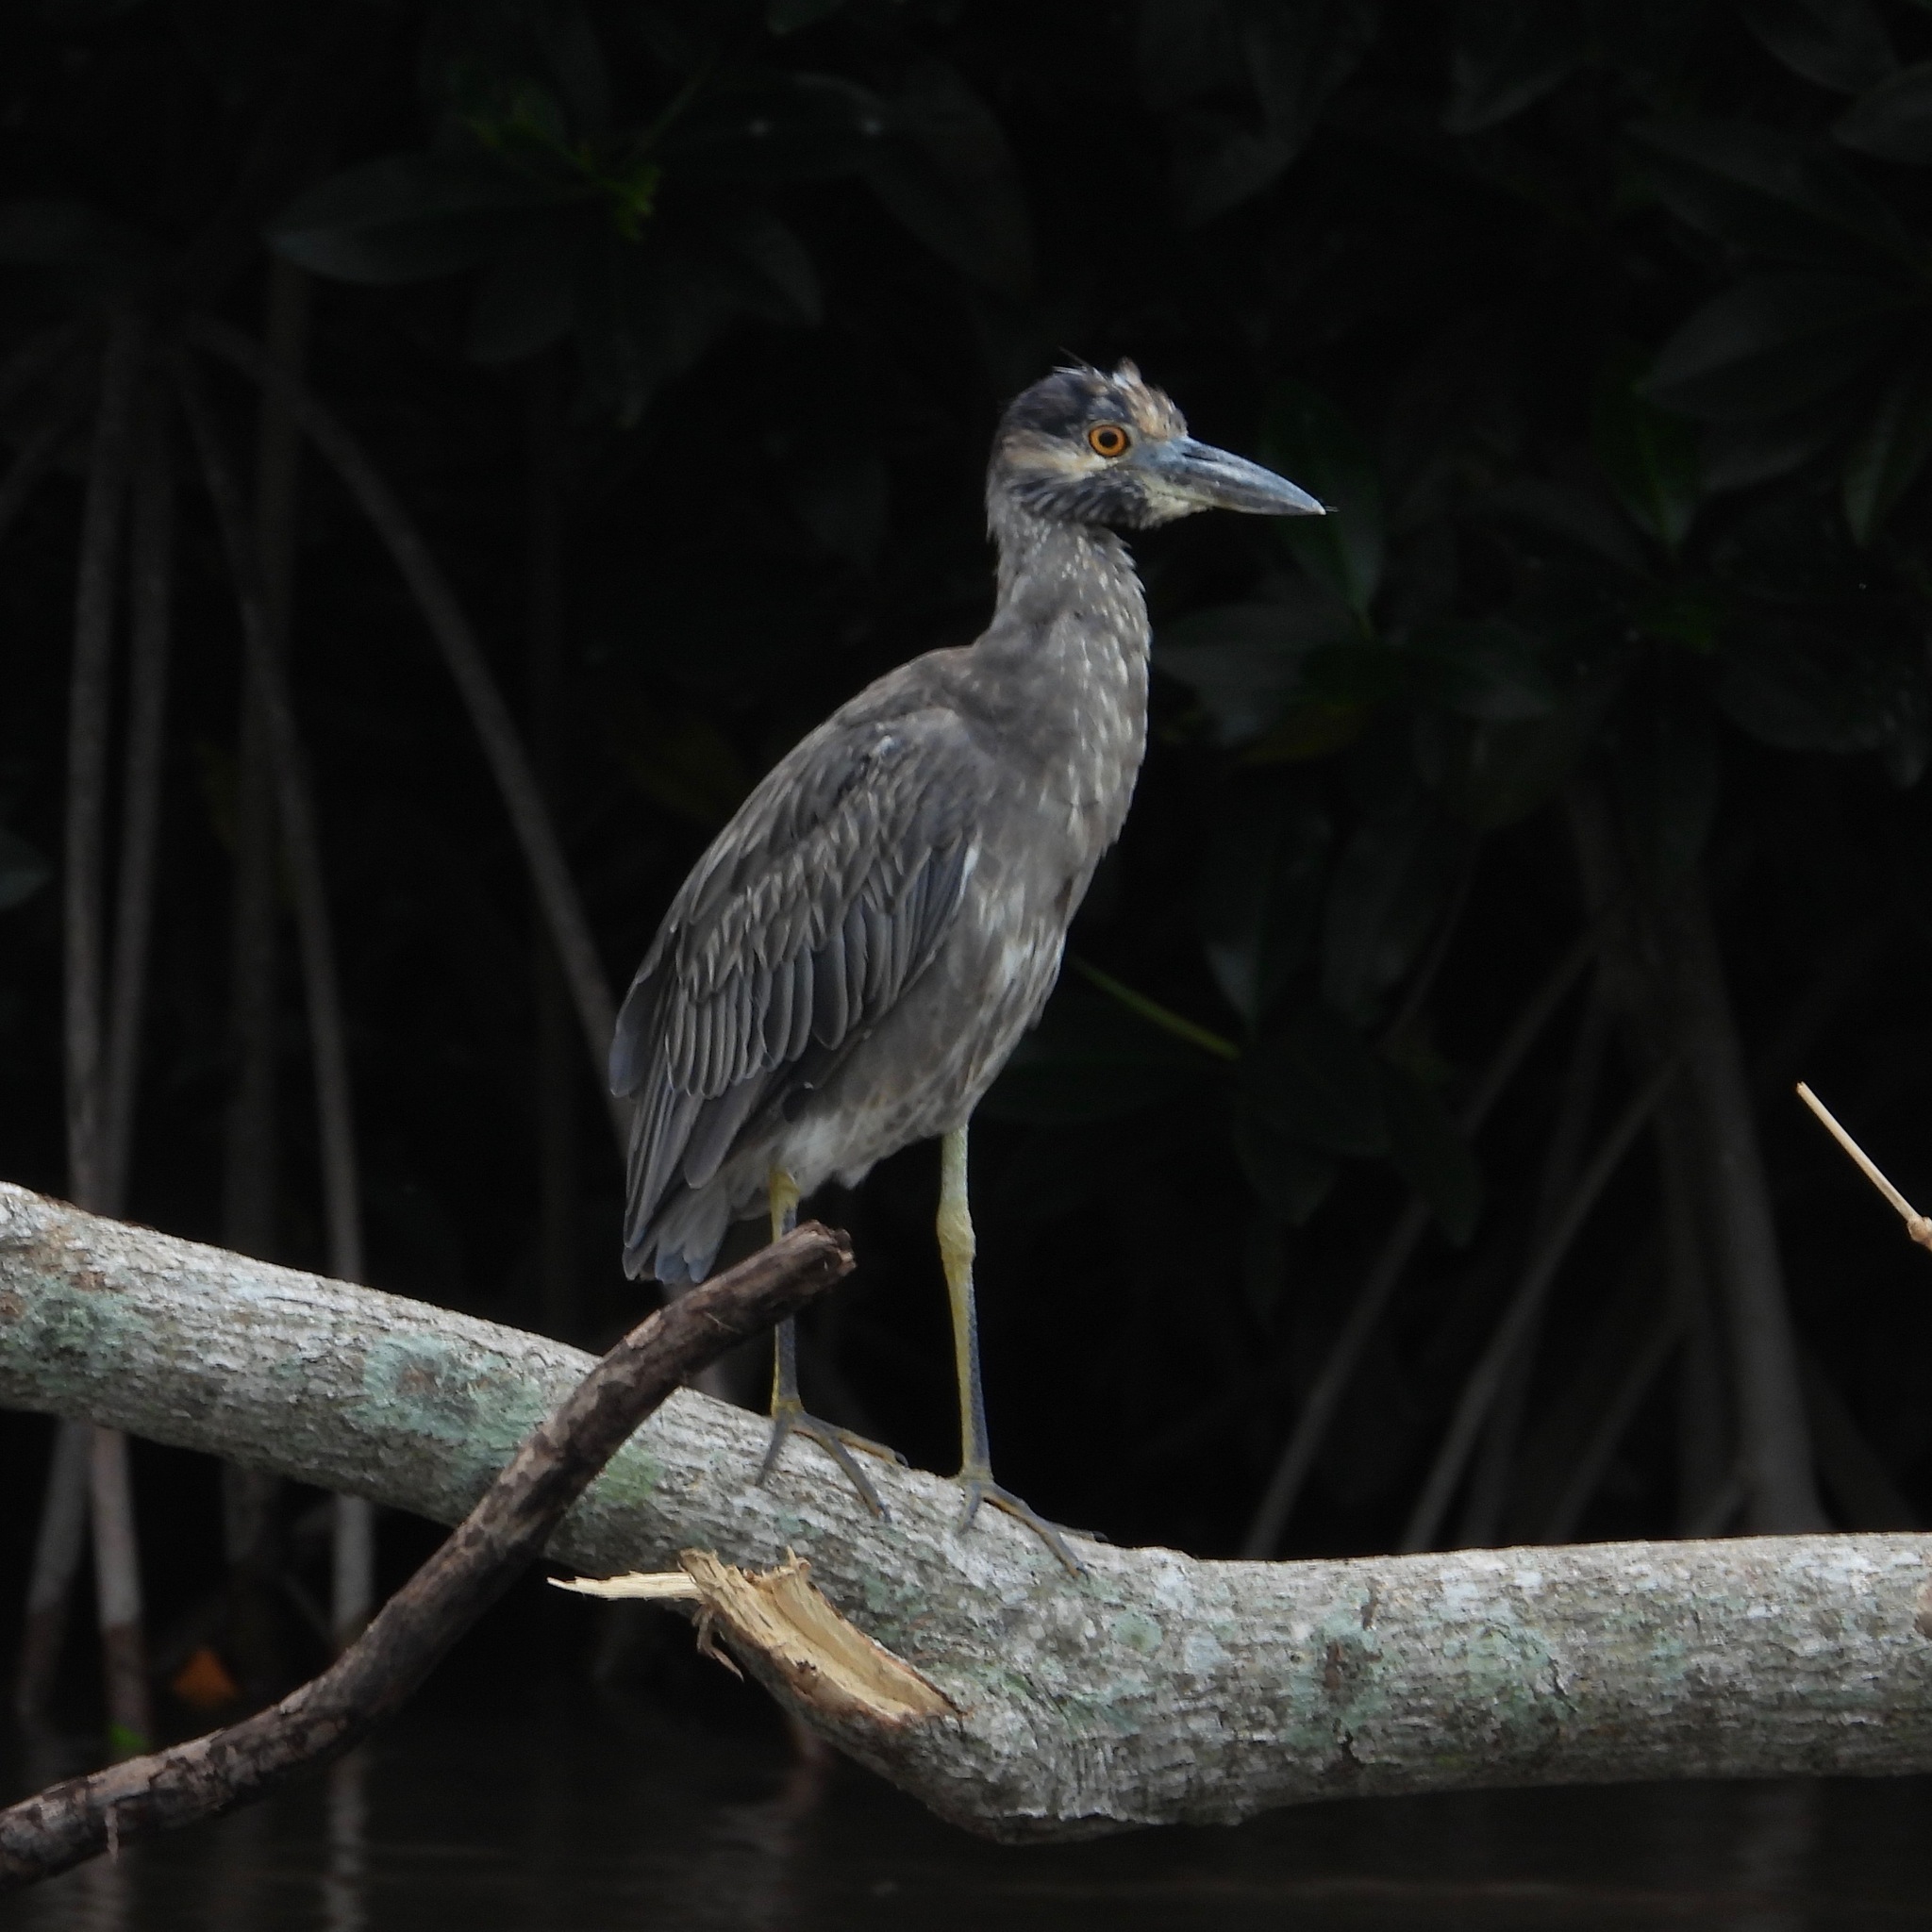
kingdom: Animalia
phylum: Chordata
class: Aves
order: Pelecaniformes
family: Ardeidae
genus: Nyctanassa
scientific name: Nyctanassa violacea
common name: Yellow-crowned night heron
